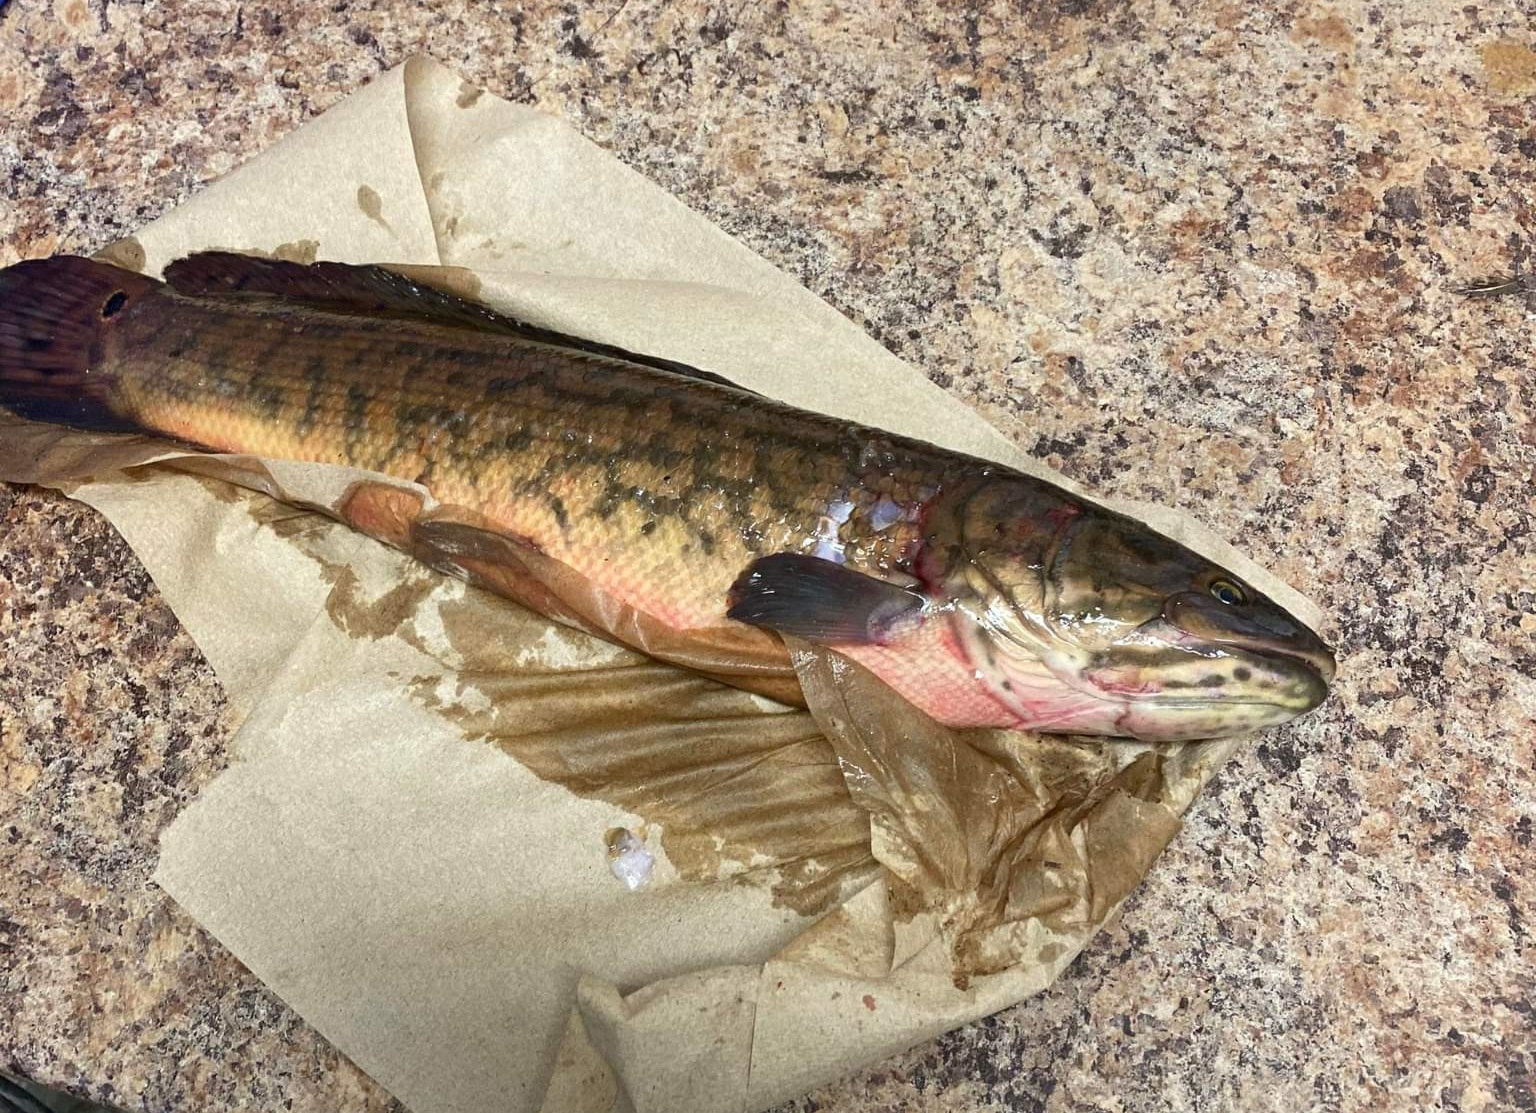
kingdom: Animalia
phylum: Chordata
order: Amiiformes
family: Amiidae
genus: Amia
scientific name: Amia calva
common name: Bowfin
